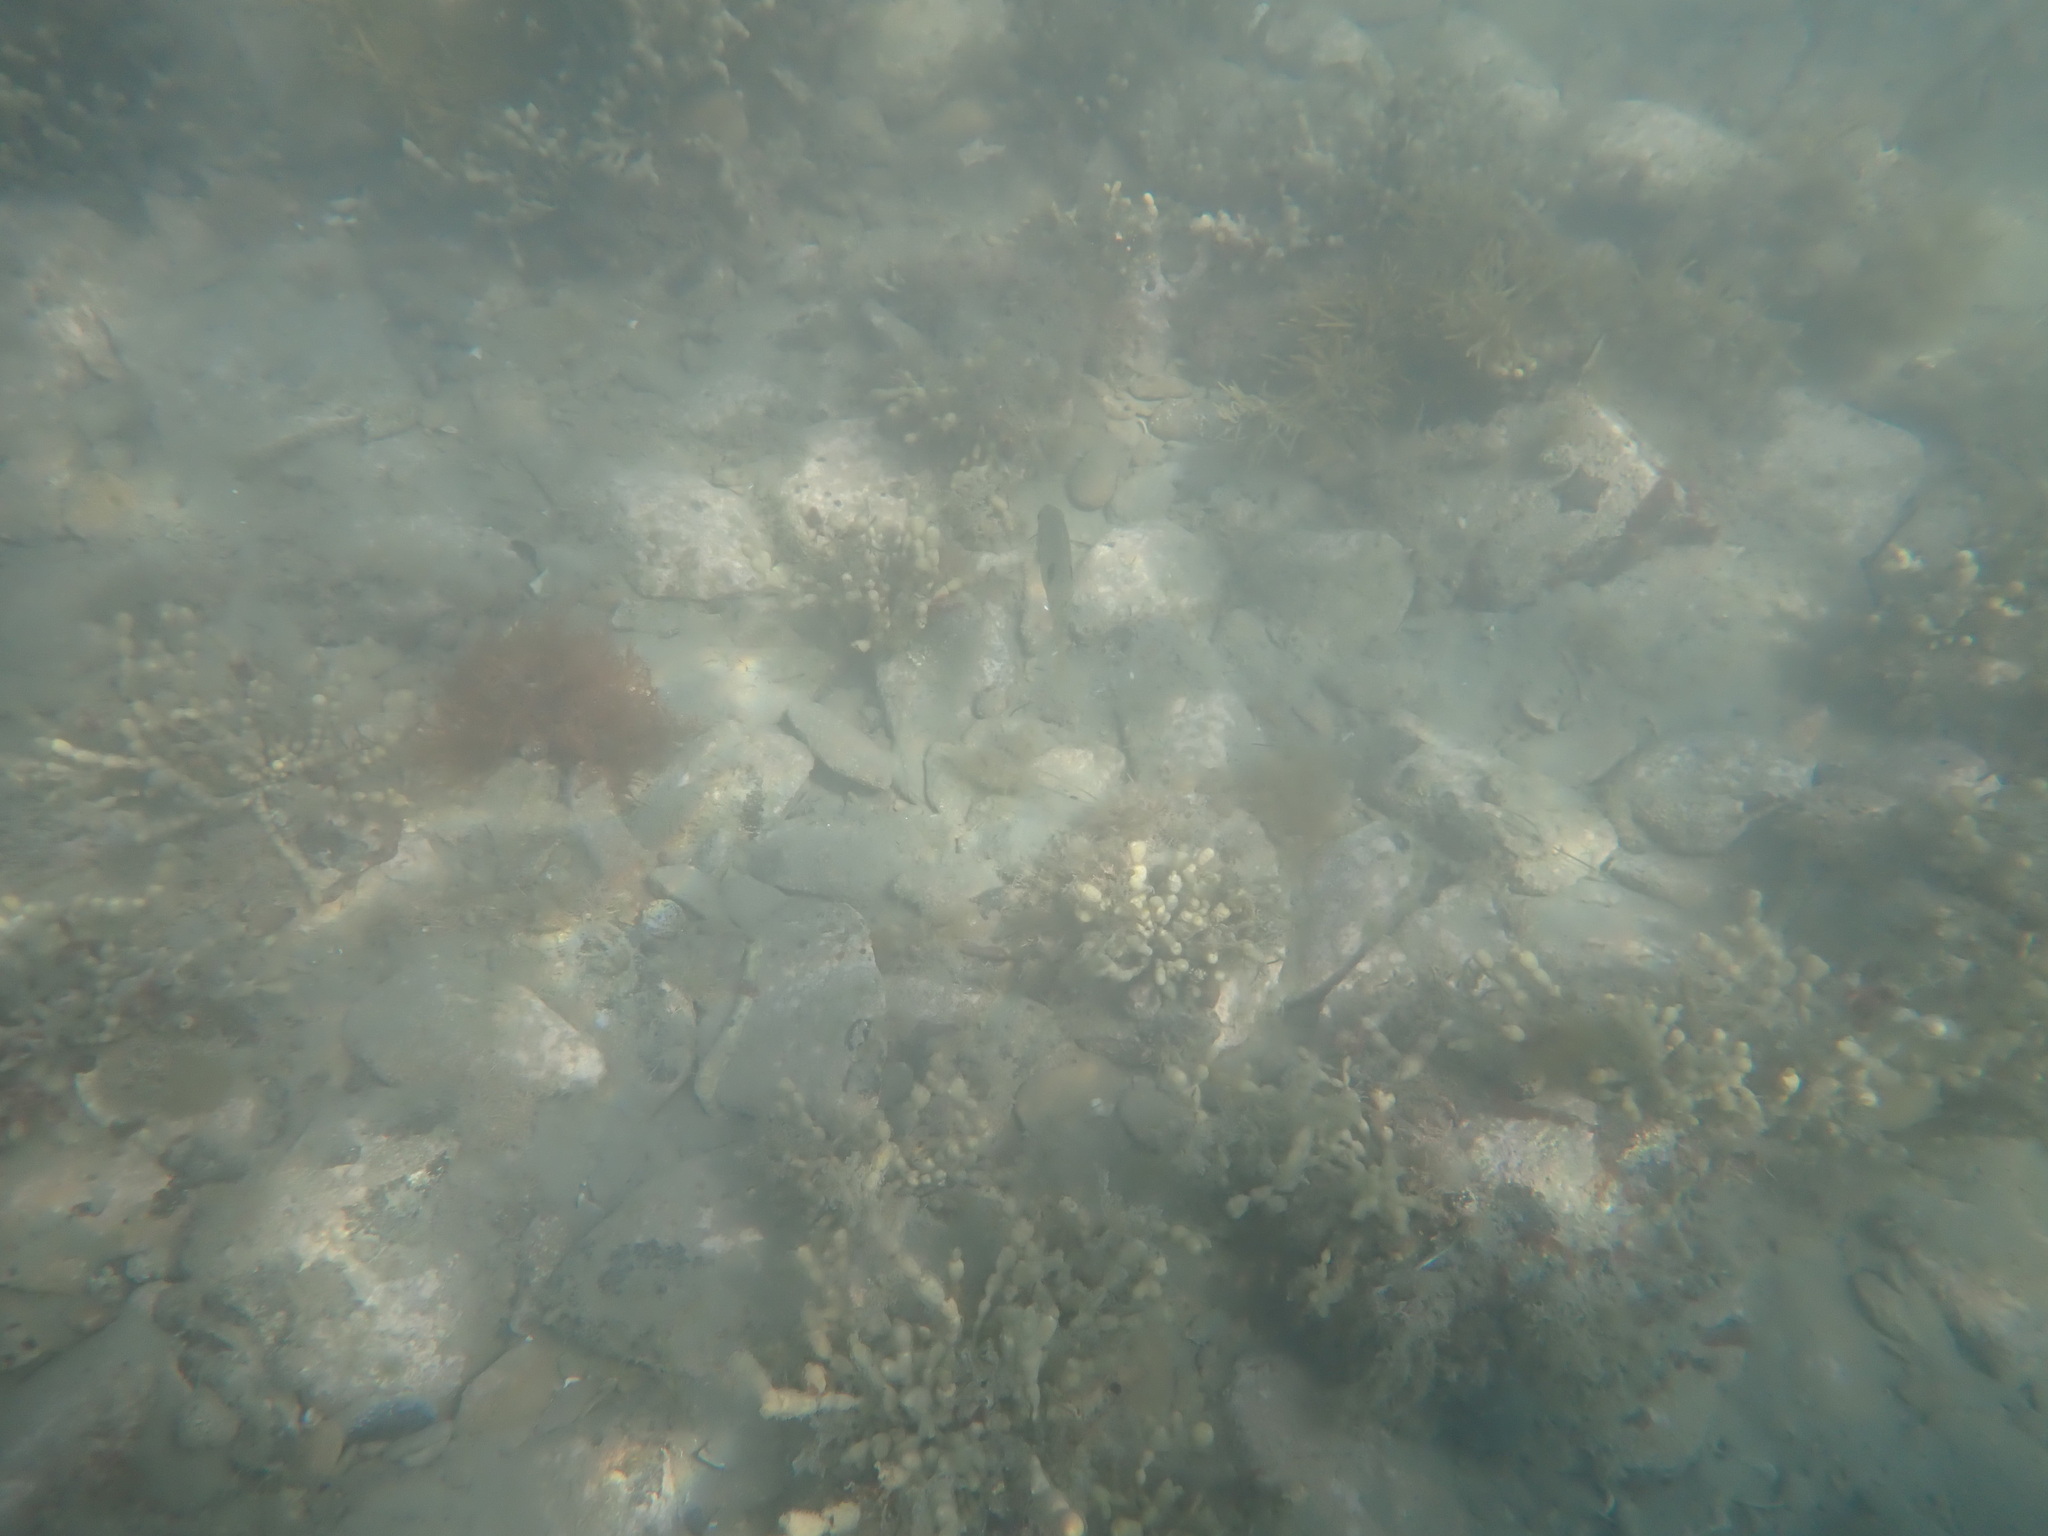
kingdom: Animalia
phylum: Chordata
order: Perciformes
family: Labridae
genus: Notolabrus
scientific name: Notolabrus celidotus
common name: Spotty
